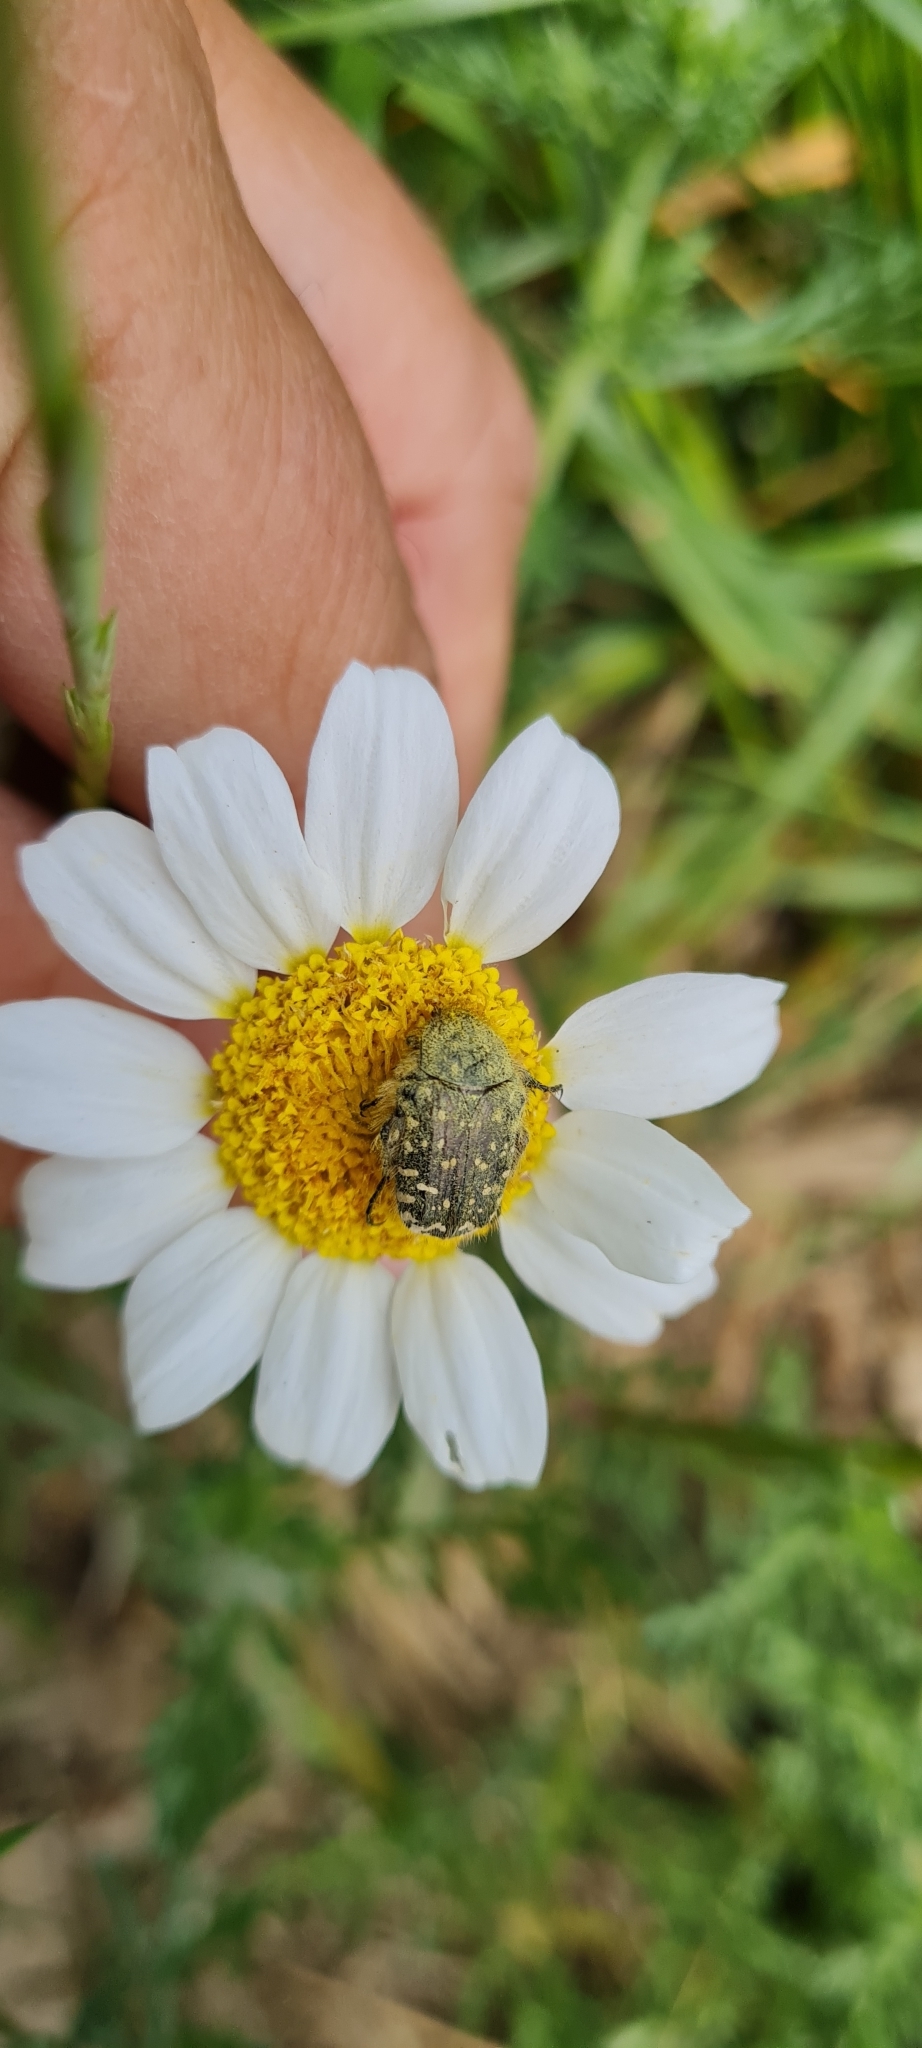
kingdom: Animalia
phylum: Arthropoda
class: Insecta
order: Coleoptera
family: Scarabaeidae
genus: Oxythyrea
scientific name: Oxythyrea funesta
